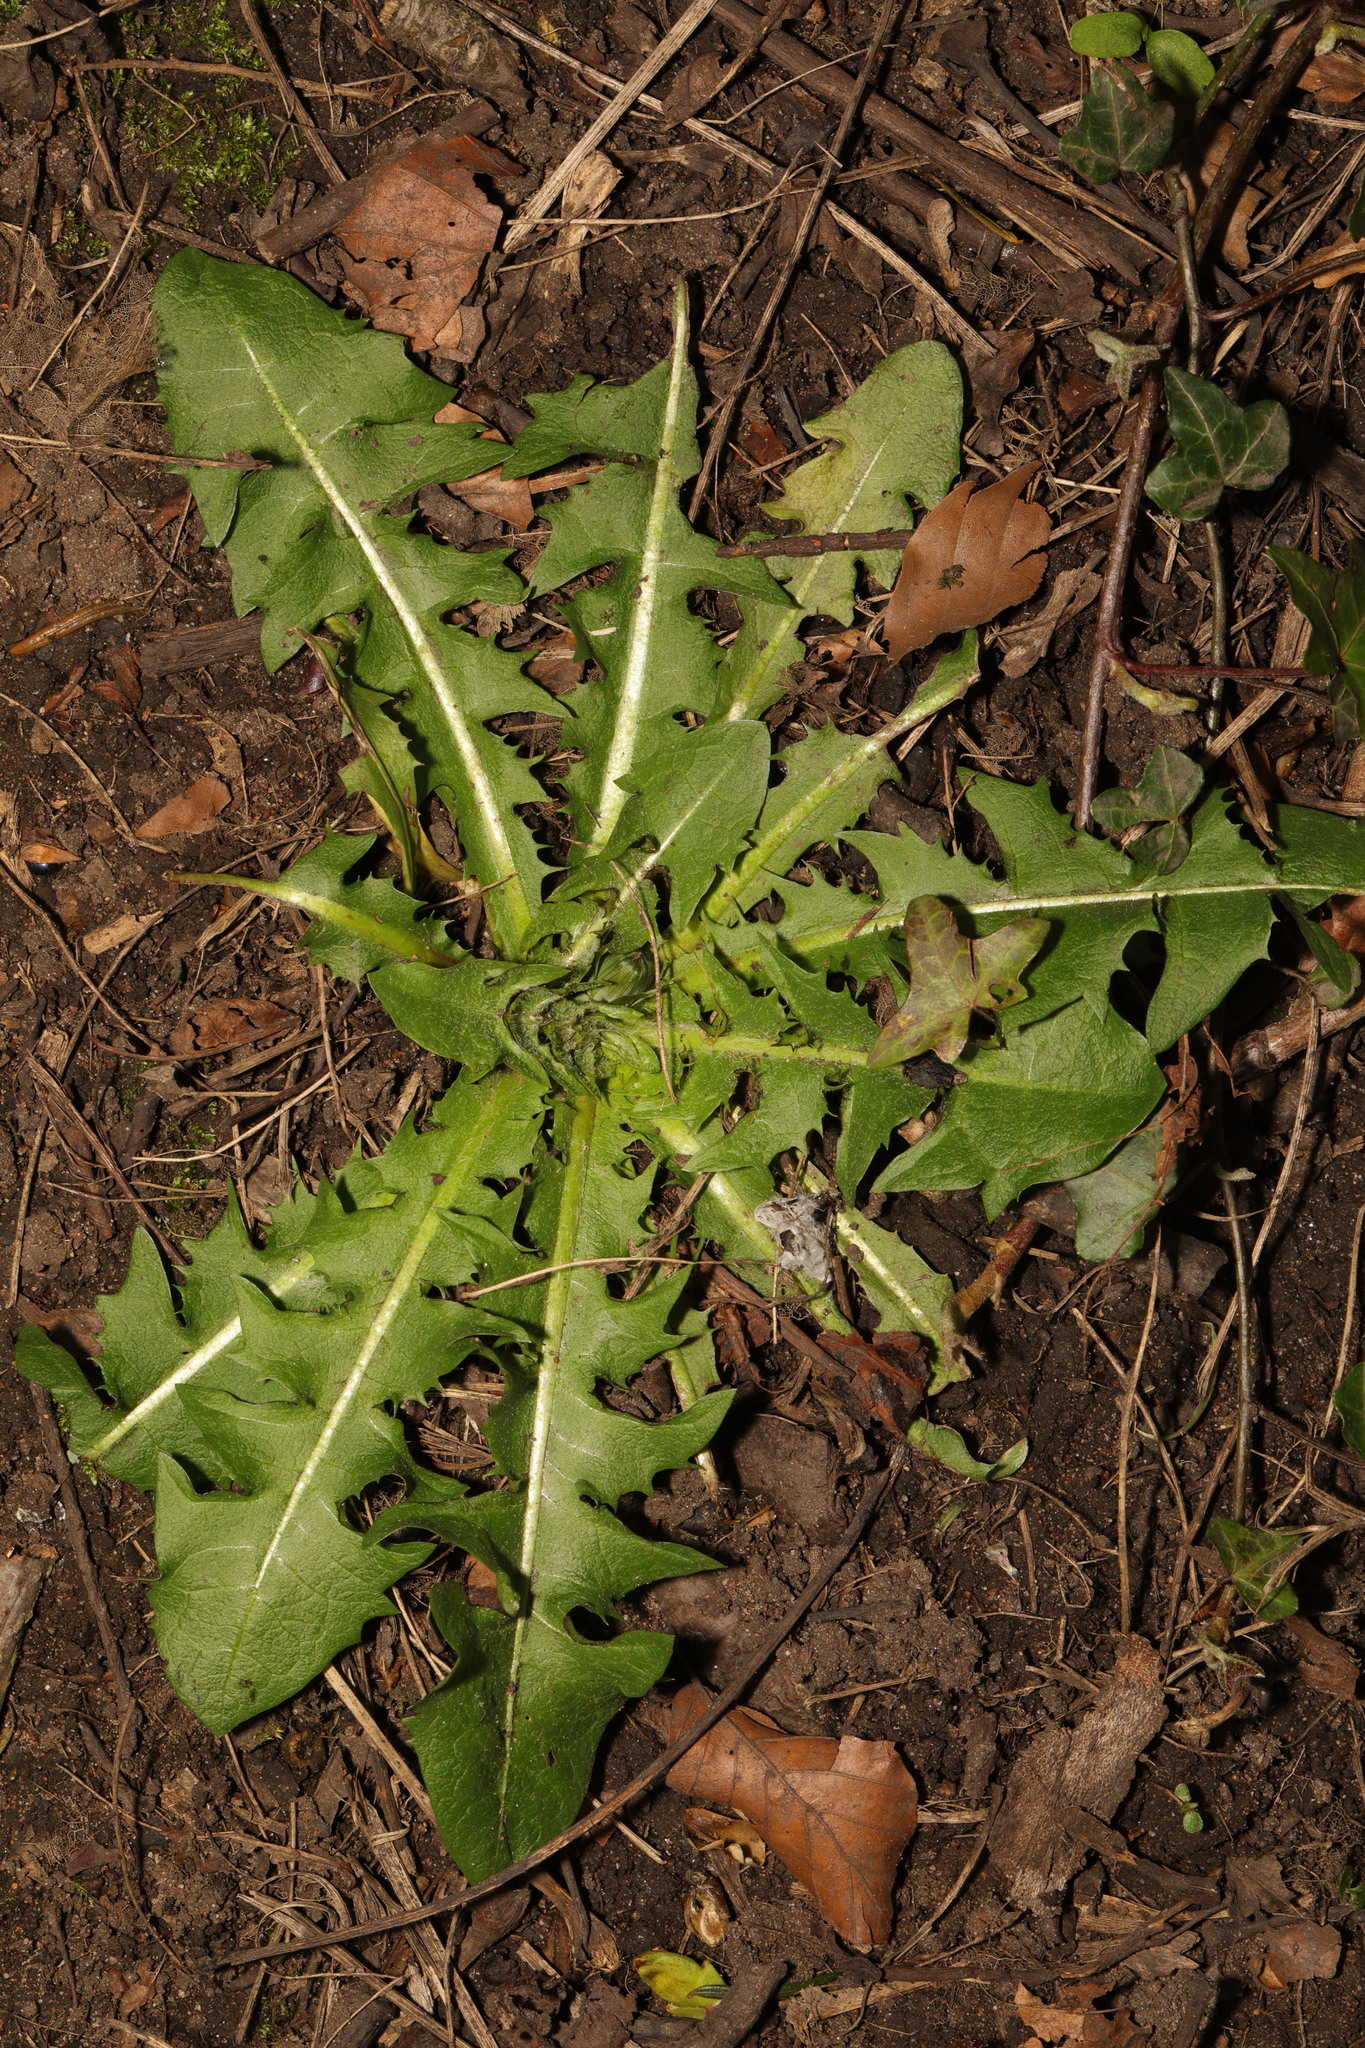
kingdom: Plantae
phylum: Tracheophyta
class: Magnoliopsida
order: Asterales
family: Asteraceae
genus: Taraxacum
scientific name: Taraxacum officinale
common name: Common dandelion
